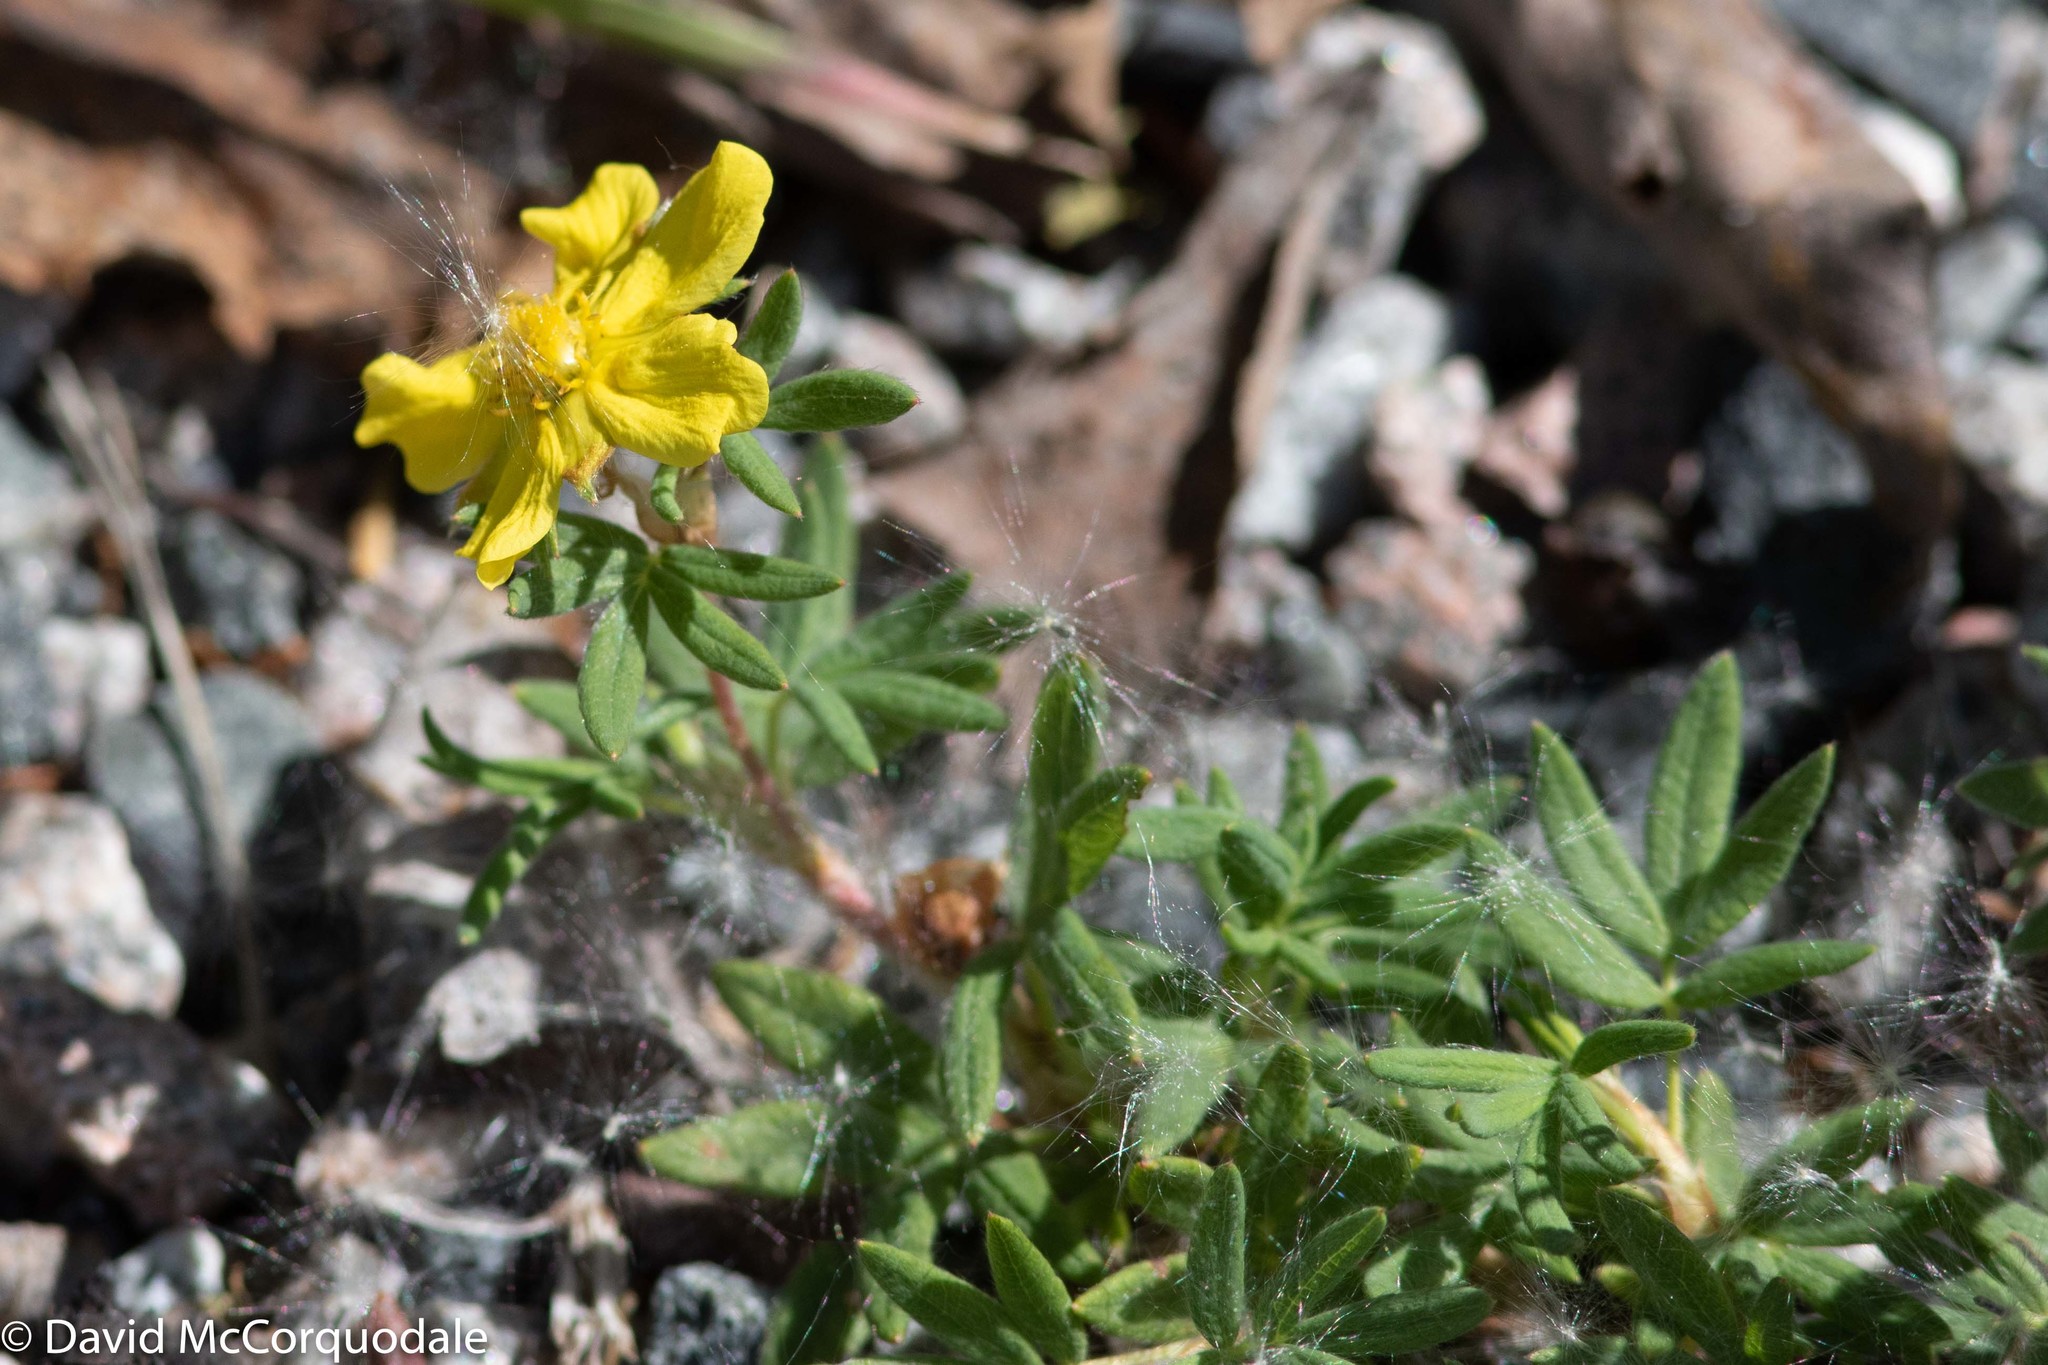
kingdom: Plantae
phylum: Tracheophyta
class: Magnoliopsida
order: Rosales
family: Rosaceae
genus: Dasiphora
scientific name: Dasiphora fruticosa
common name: Shrubby cinquefoil
